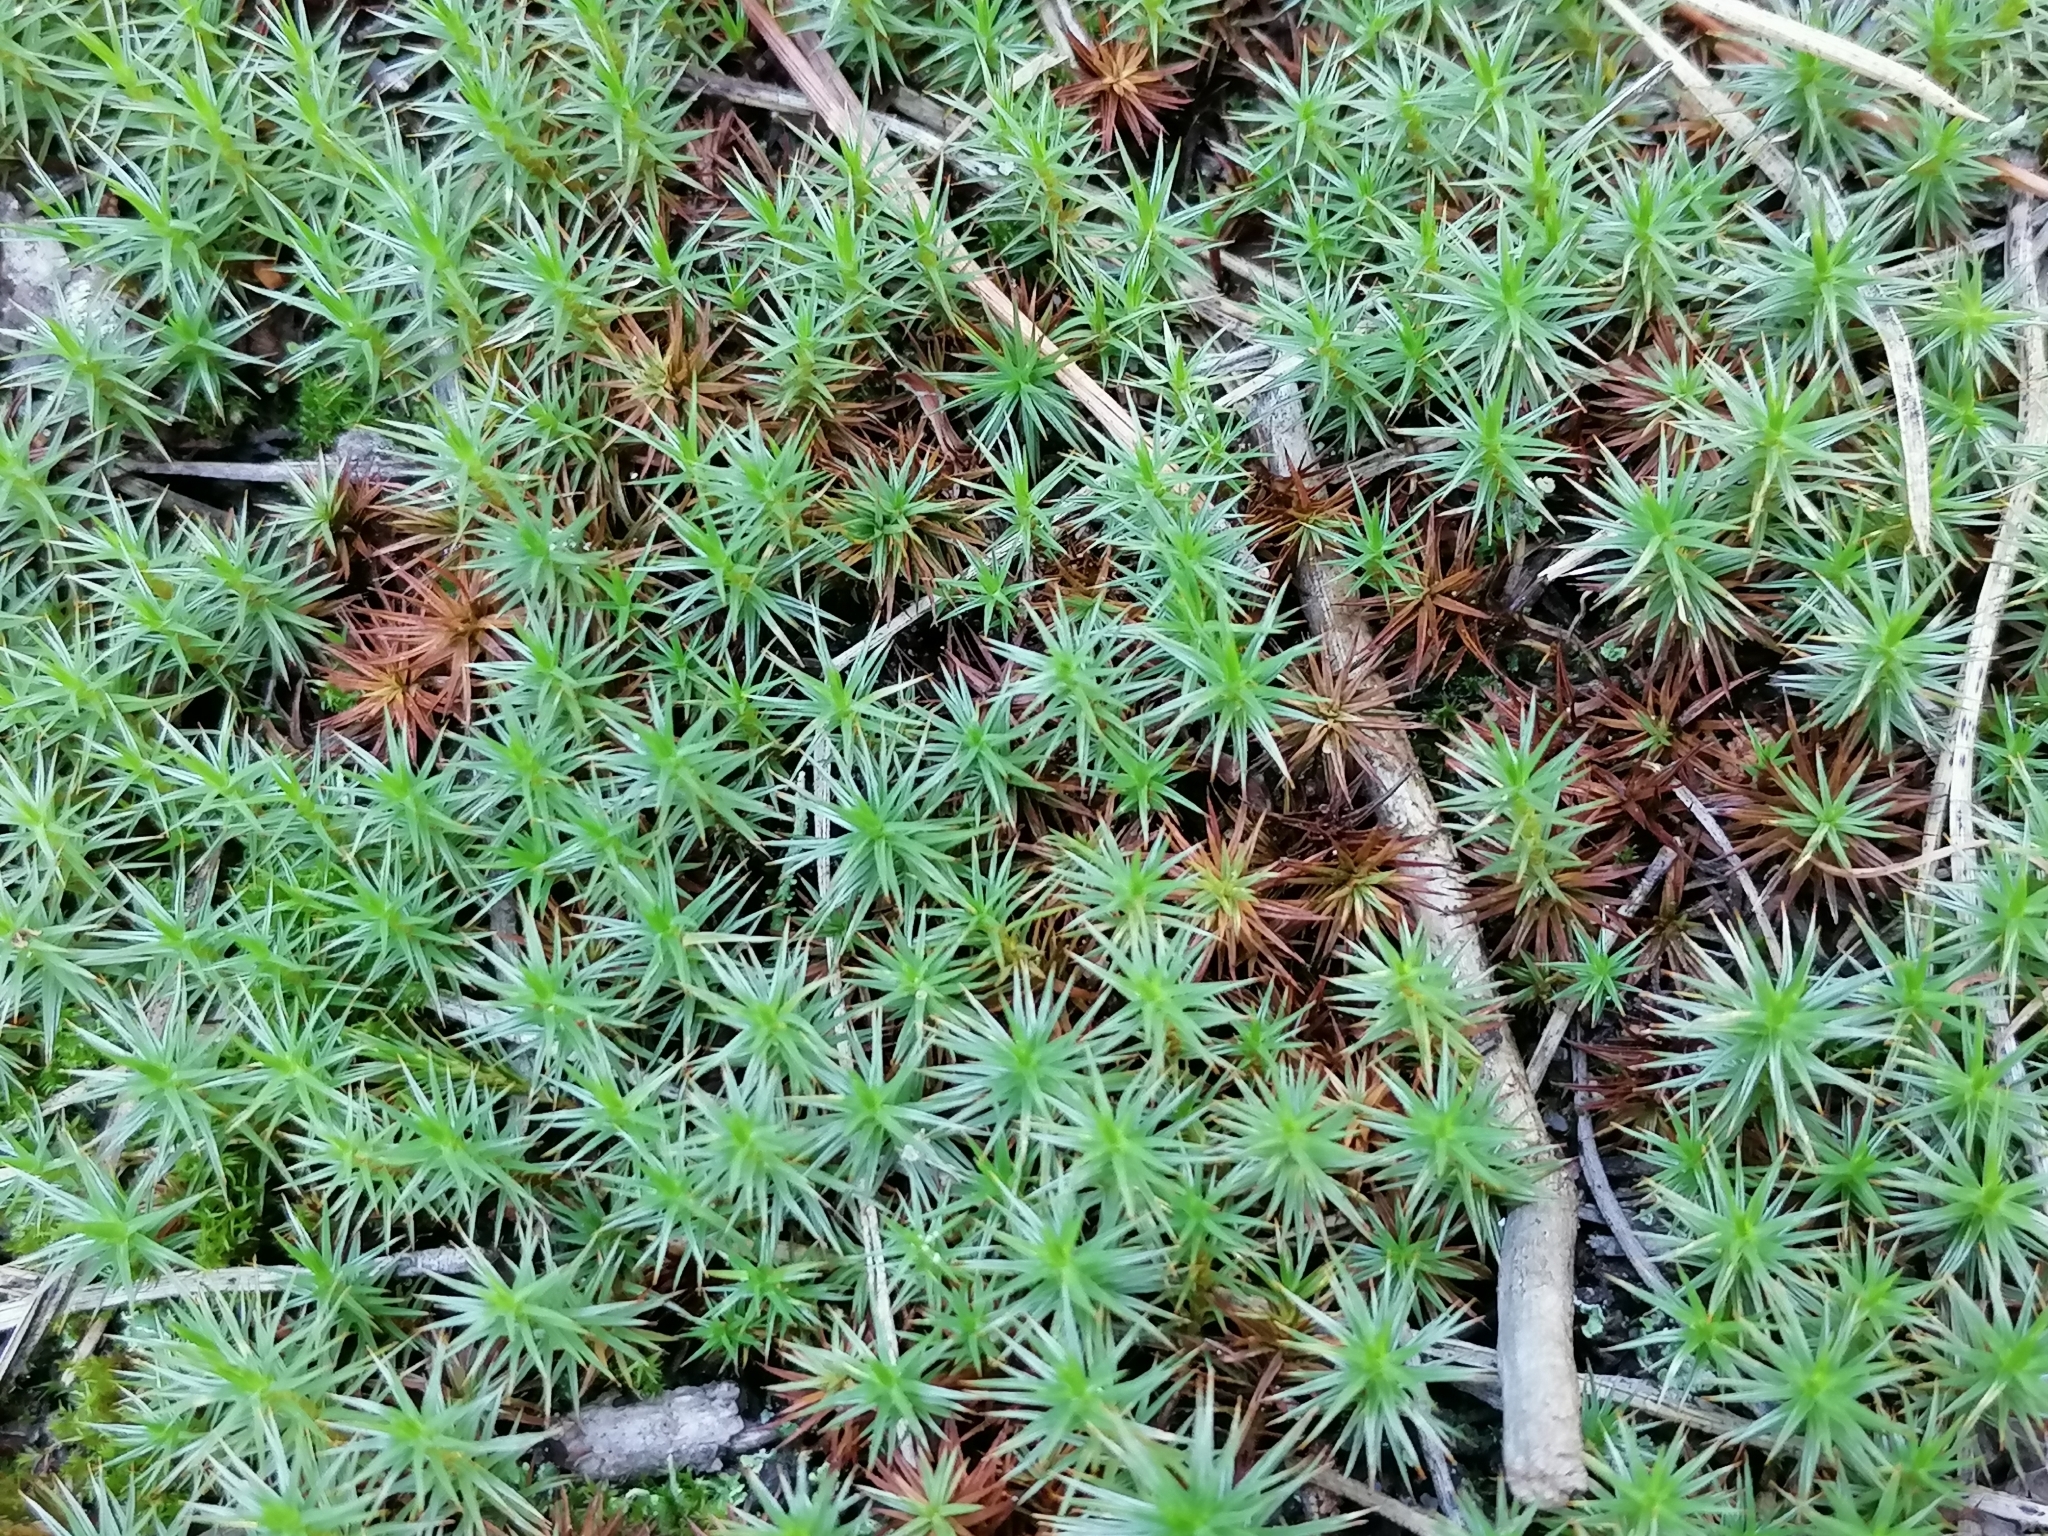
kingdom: Plantae
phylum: Bryophyta
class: Polytrichopsida
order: Polytrichales
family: Polytrichaceae
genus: Polytrichum
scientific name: Polytrichum piliferum
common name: Bristly haircap
